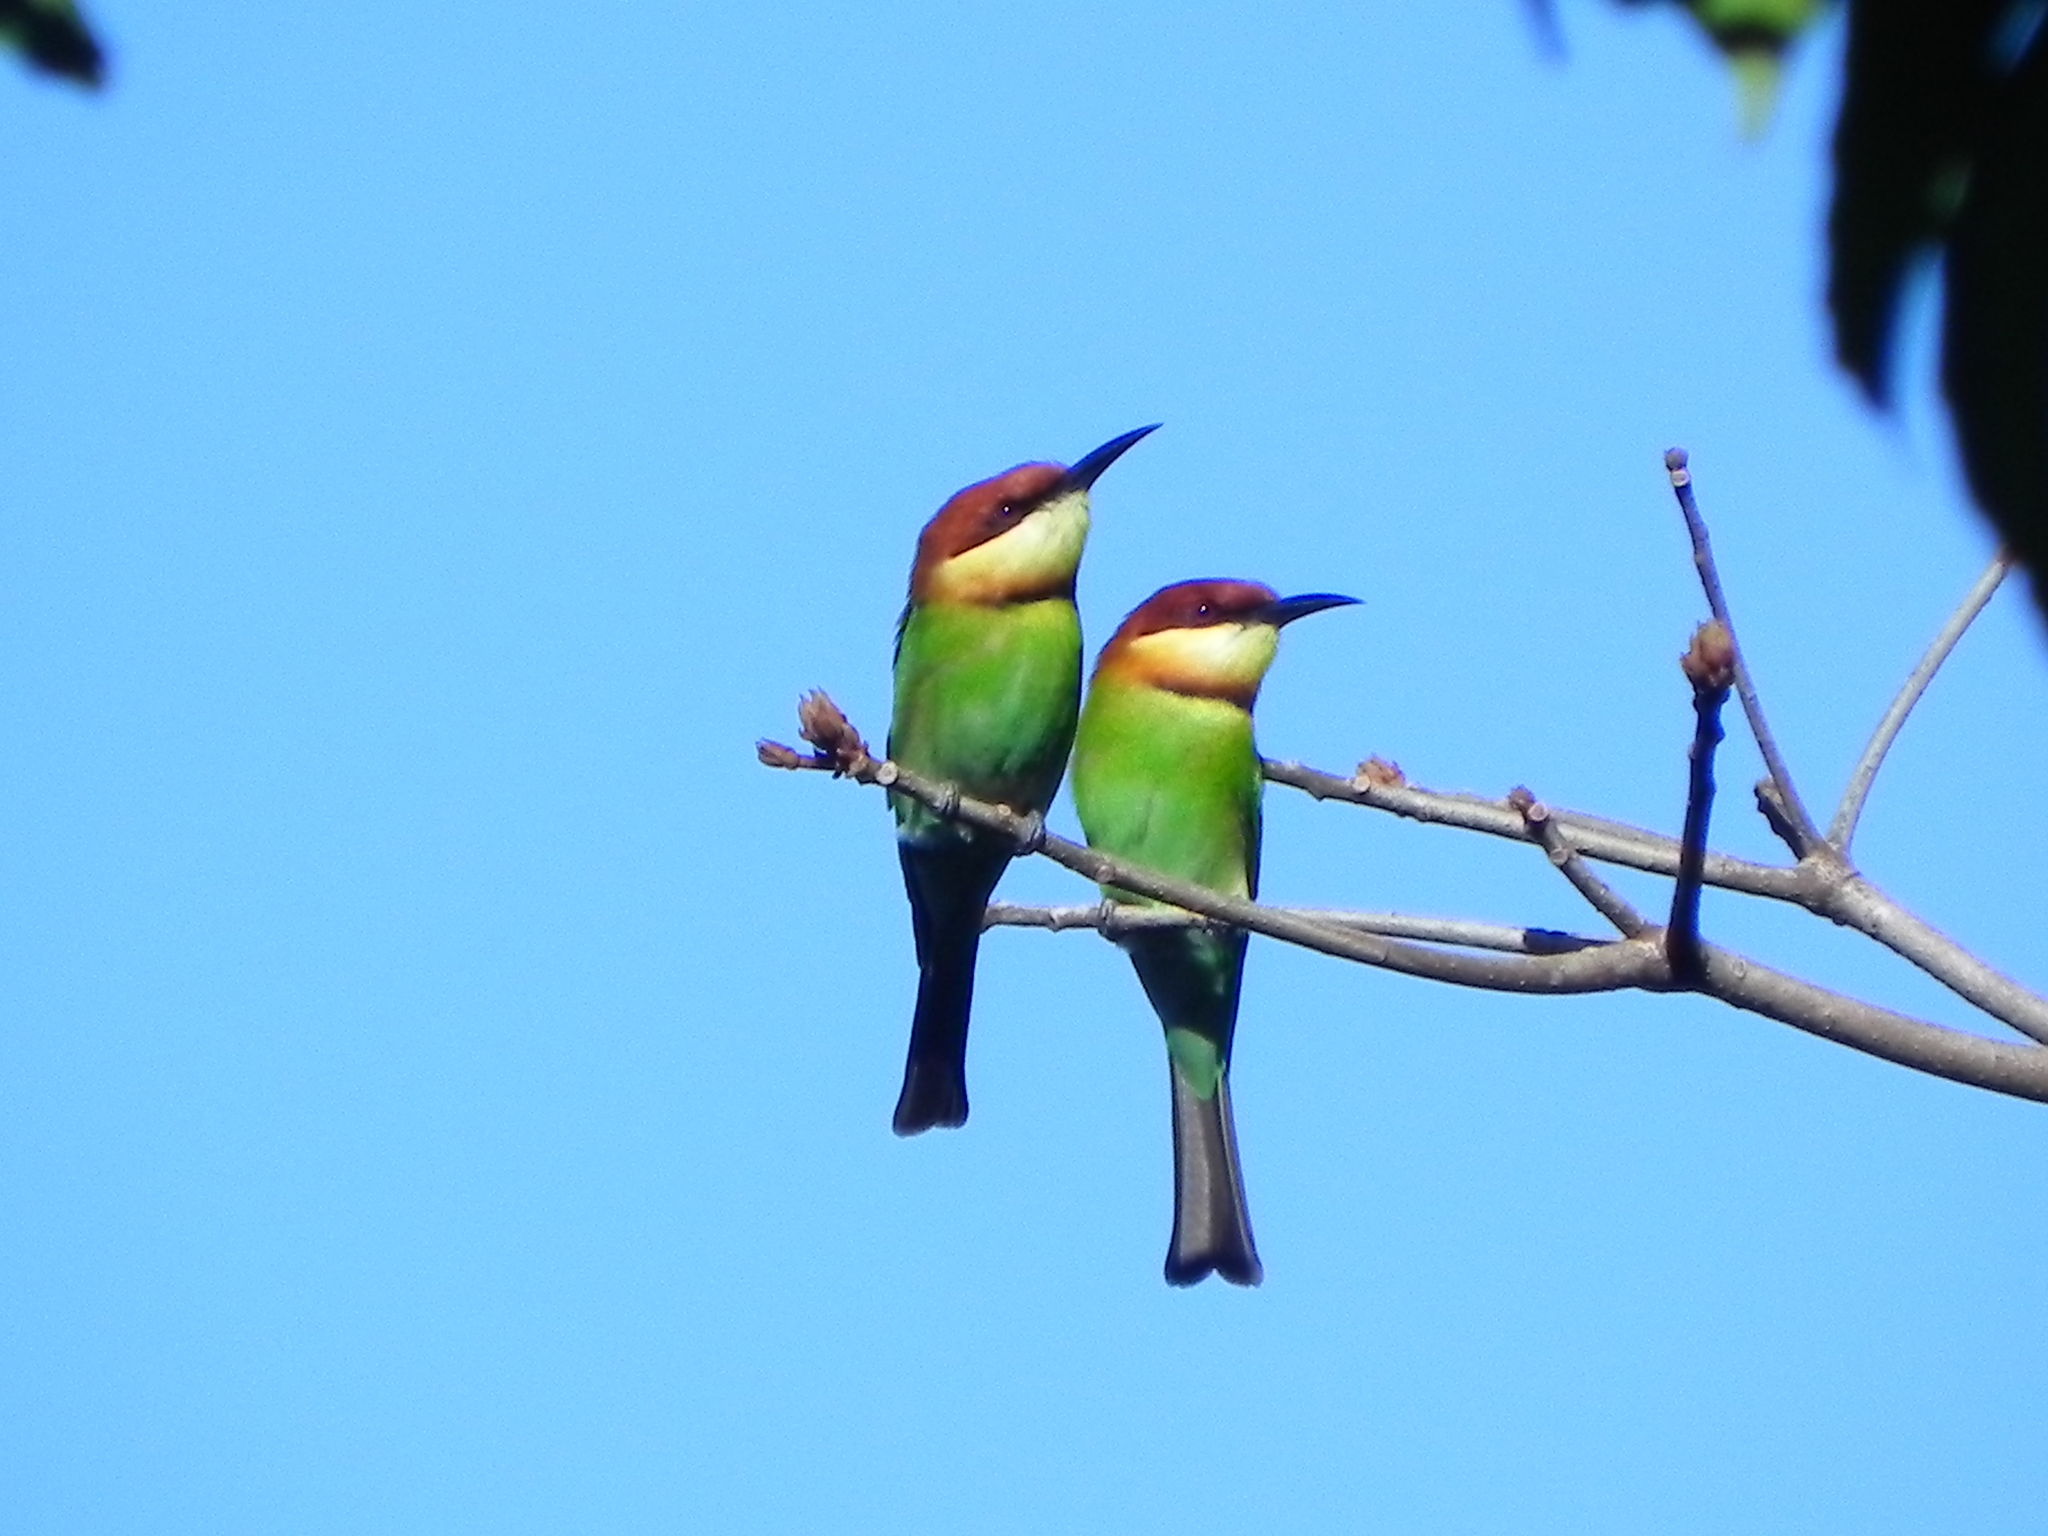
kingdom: Animalia
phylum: Chordata
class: Aves
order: Coraciiformes
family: Meropidae
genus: Merops
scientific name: Merops leschenaulti
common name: Chestnut-headed bee-eater
